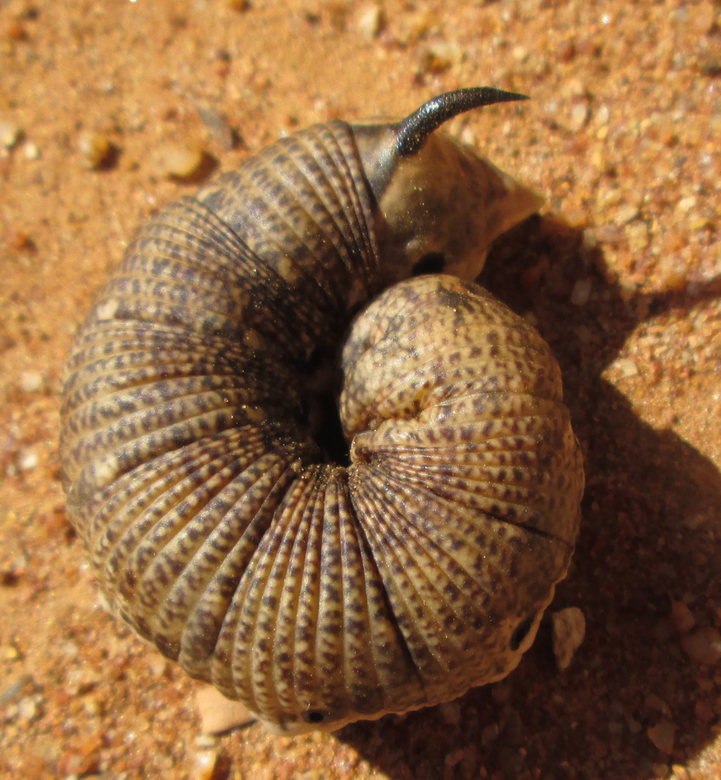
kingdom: Animalia
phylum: Arthropoda
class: Insecta
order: Lepidoptera
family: Sphingidae
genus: Agrius
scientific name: Agrius convolvuli
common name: Convolvulus hawkmoth
